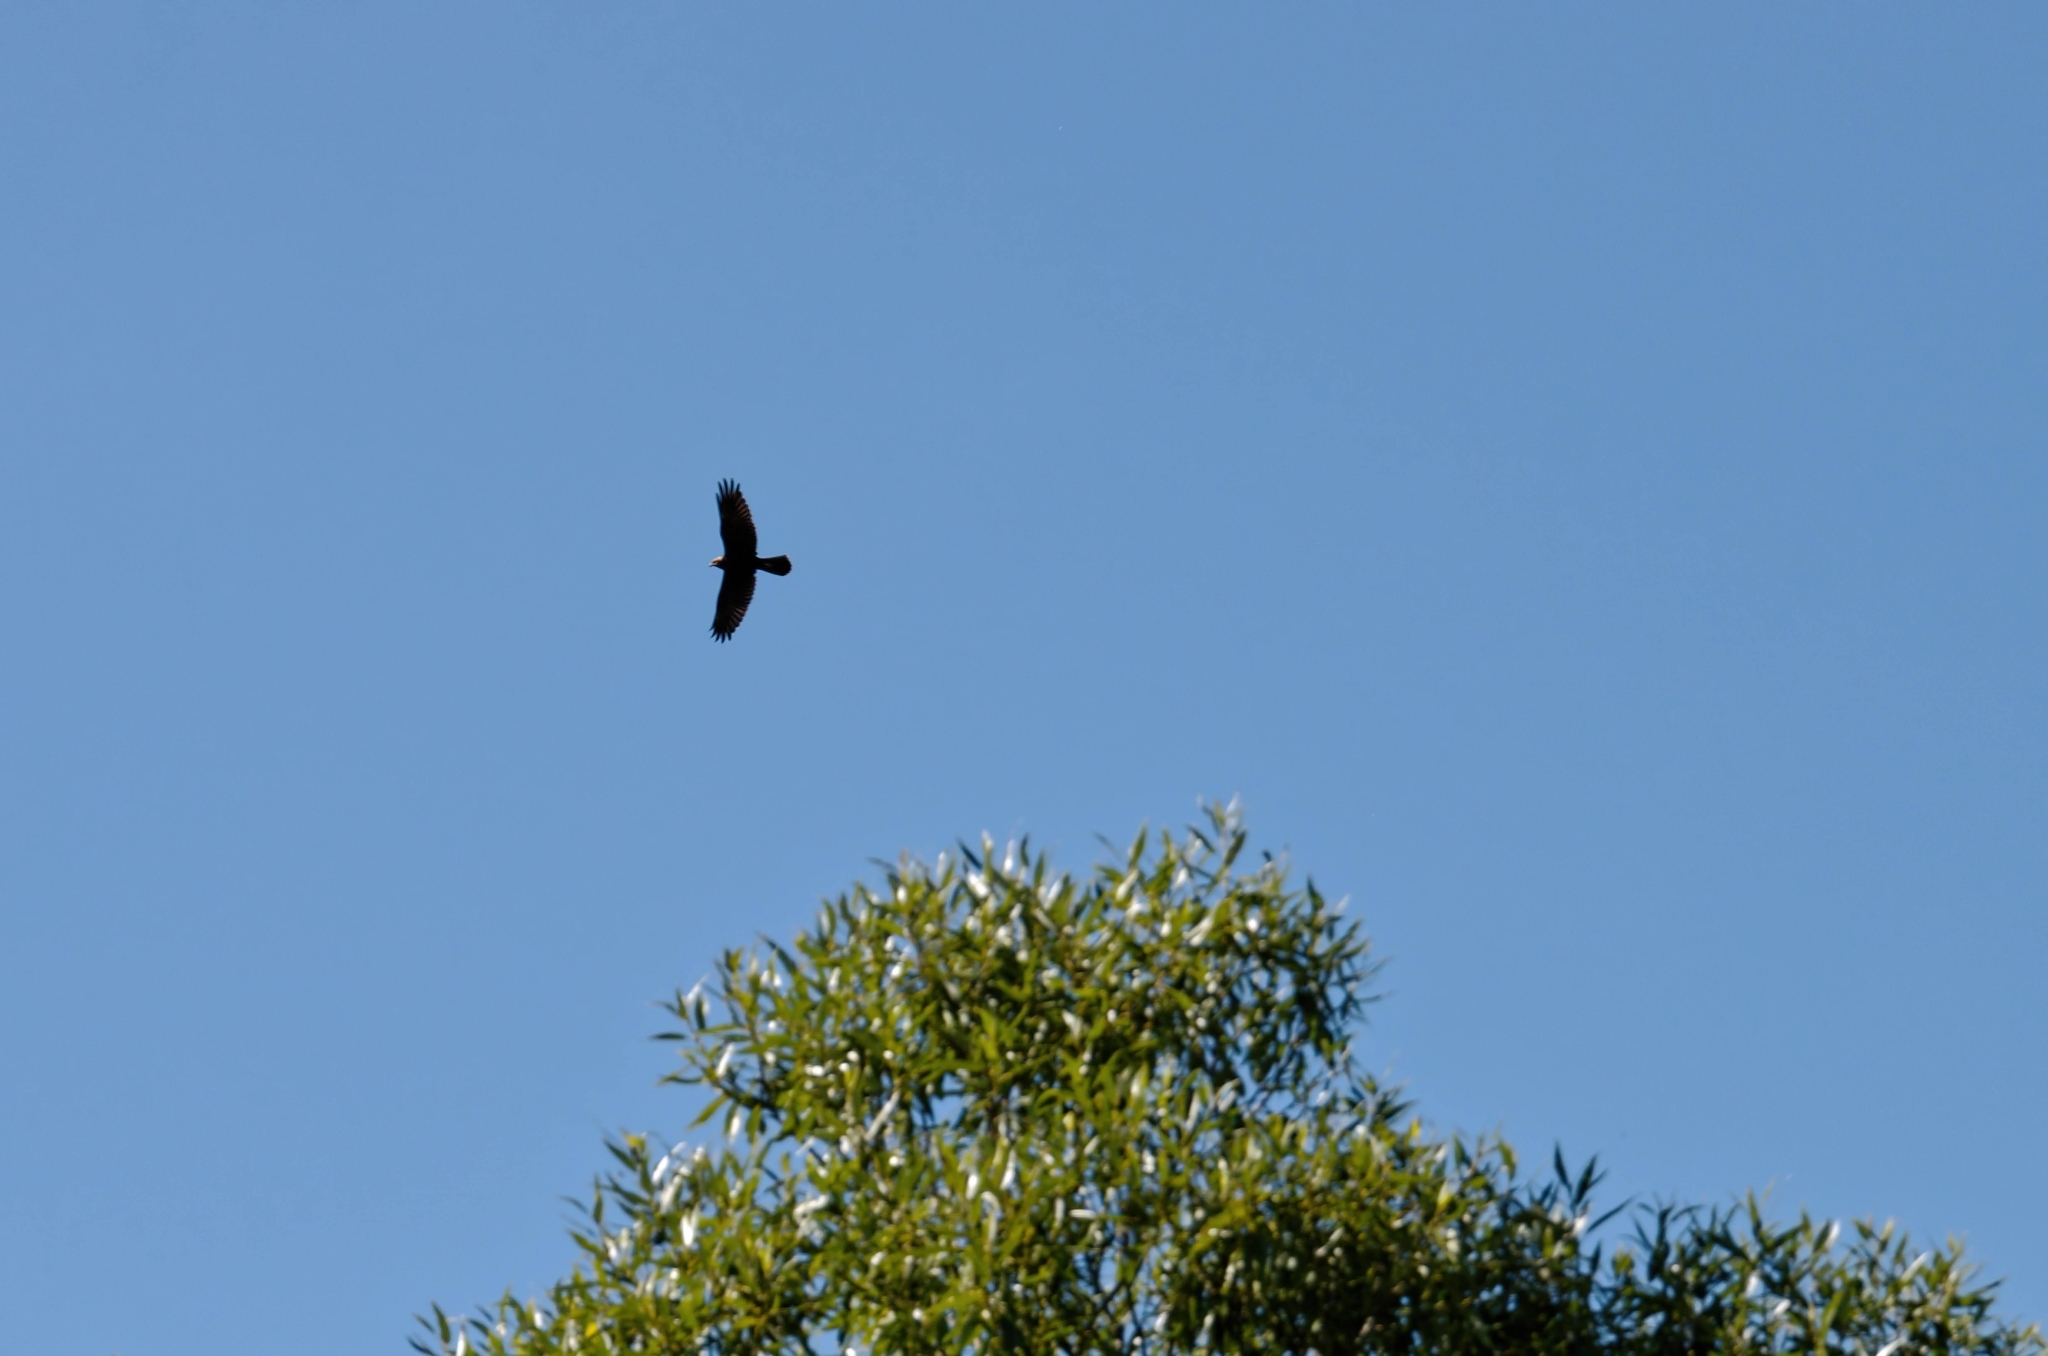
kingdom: Animalia
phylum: Chordata
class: Aves
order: Accipitriformes
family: Accipitridae
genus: Circus
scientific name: Circus aeruginosus
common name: Western marsh harrier
